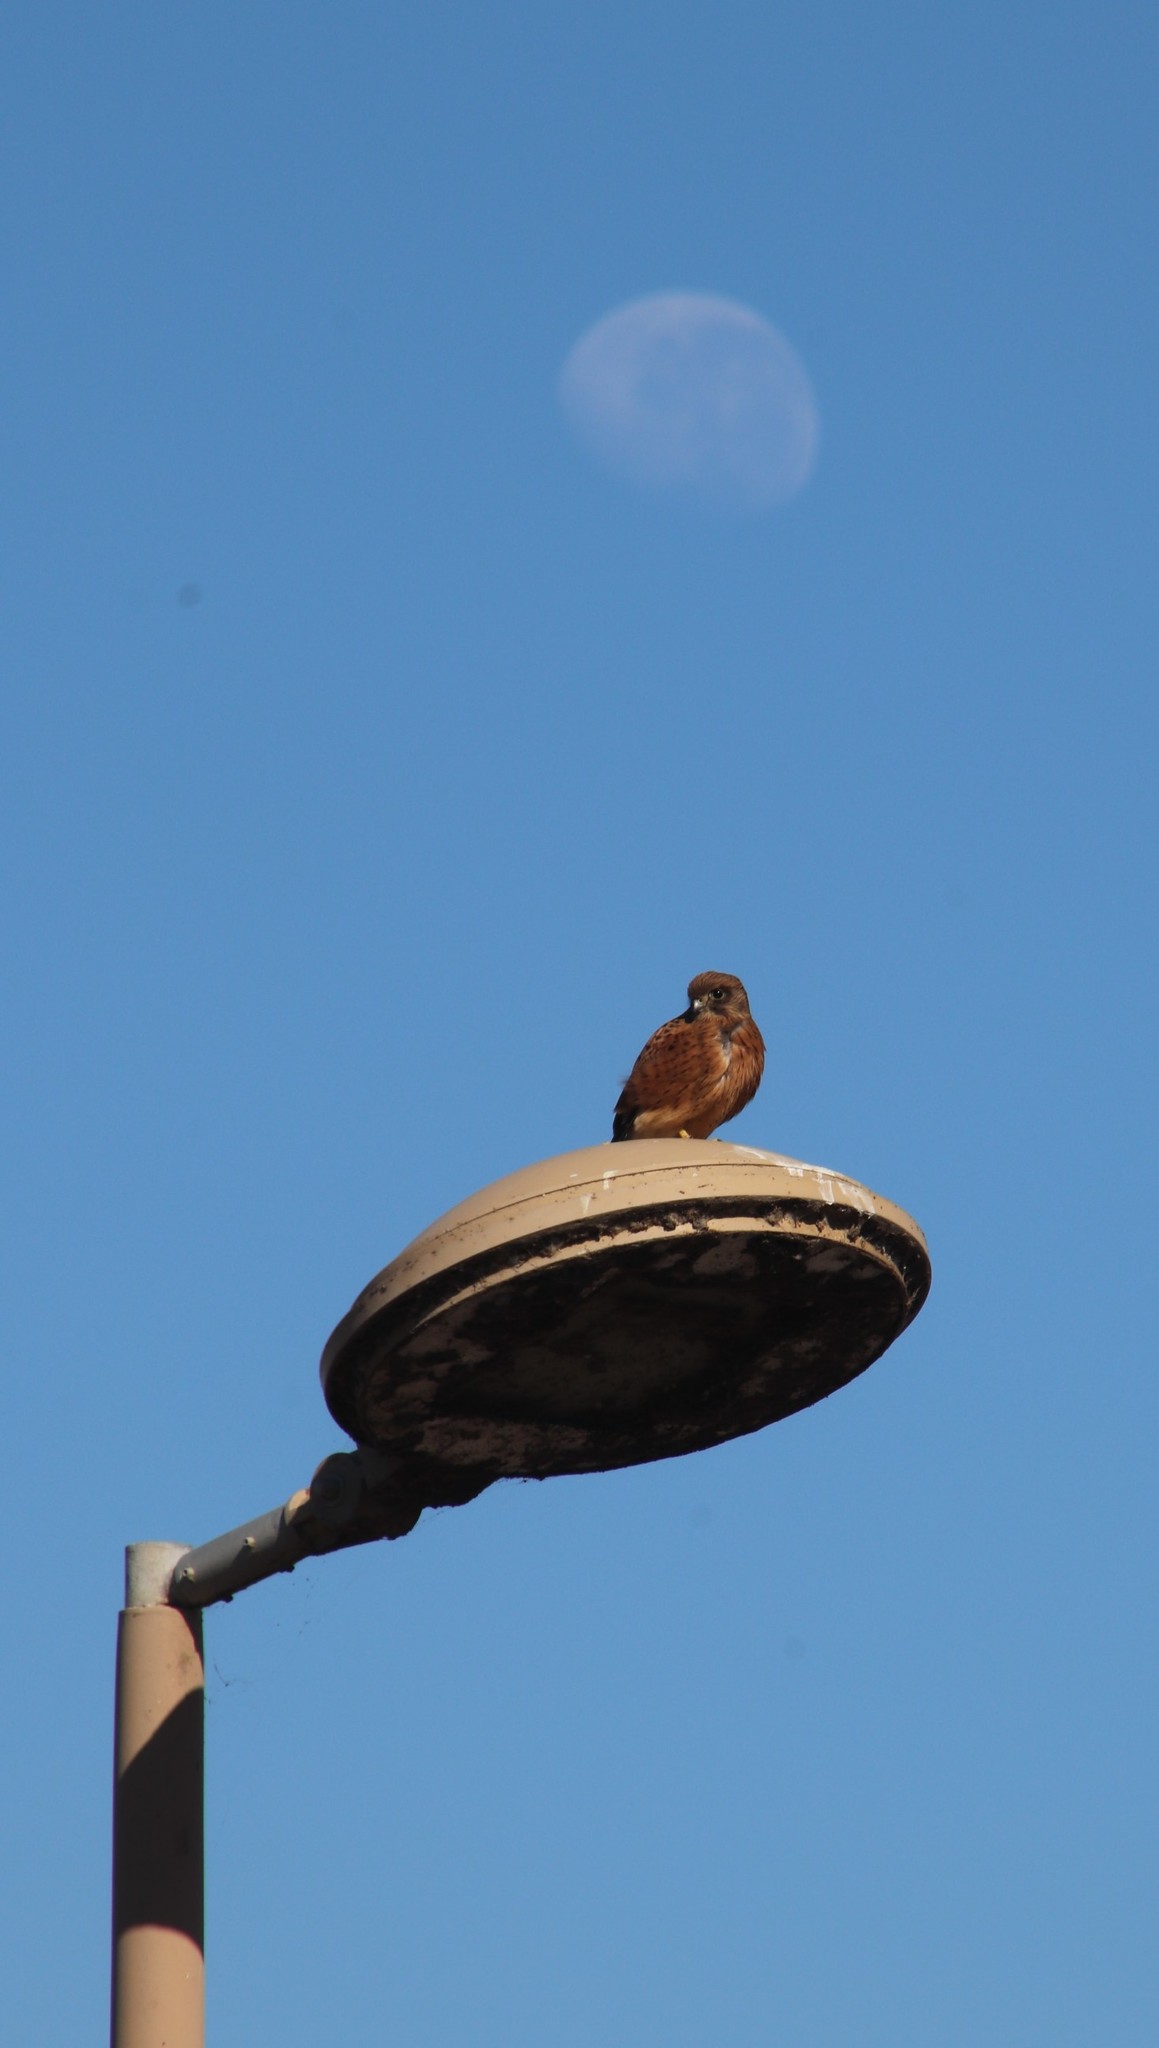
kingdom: Animalia
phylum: Chordata
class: Aves
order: Falconiformes
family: Falconidae
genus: Falco
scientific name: Falco rupicolus
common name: Rock kestrel
